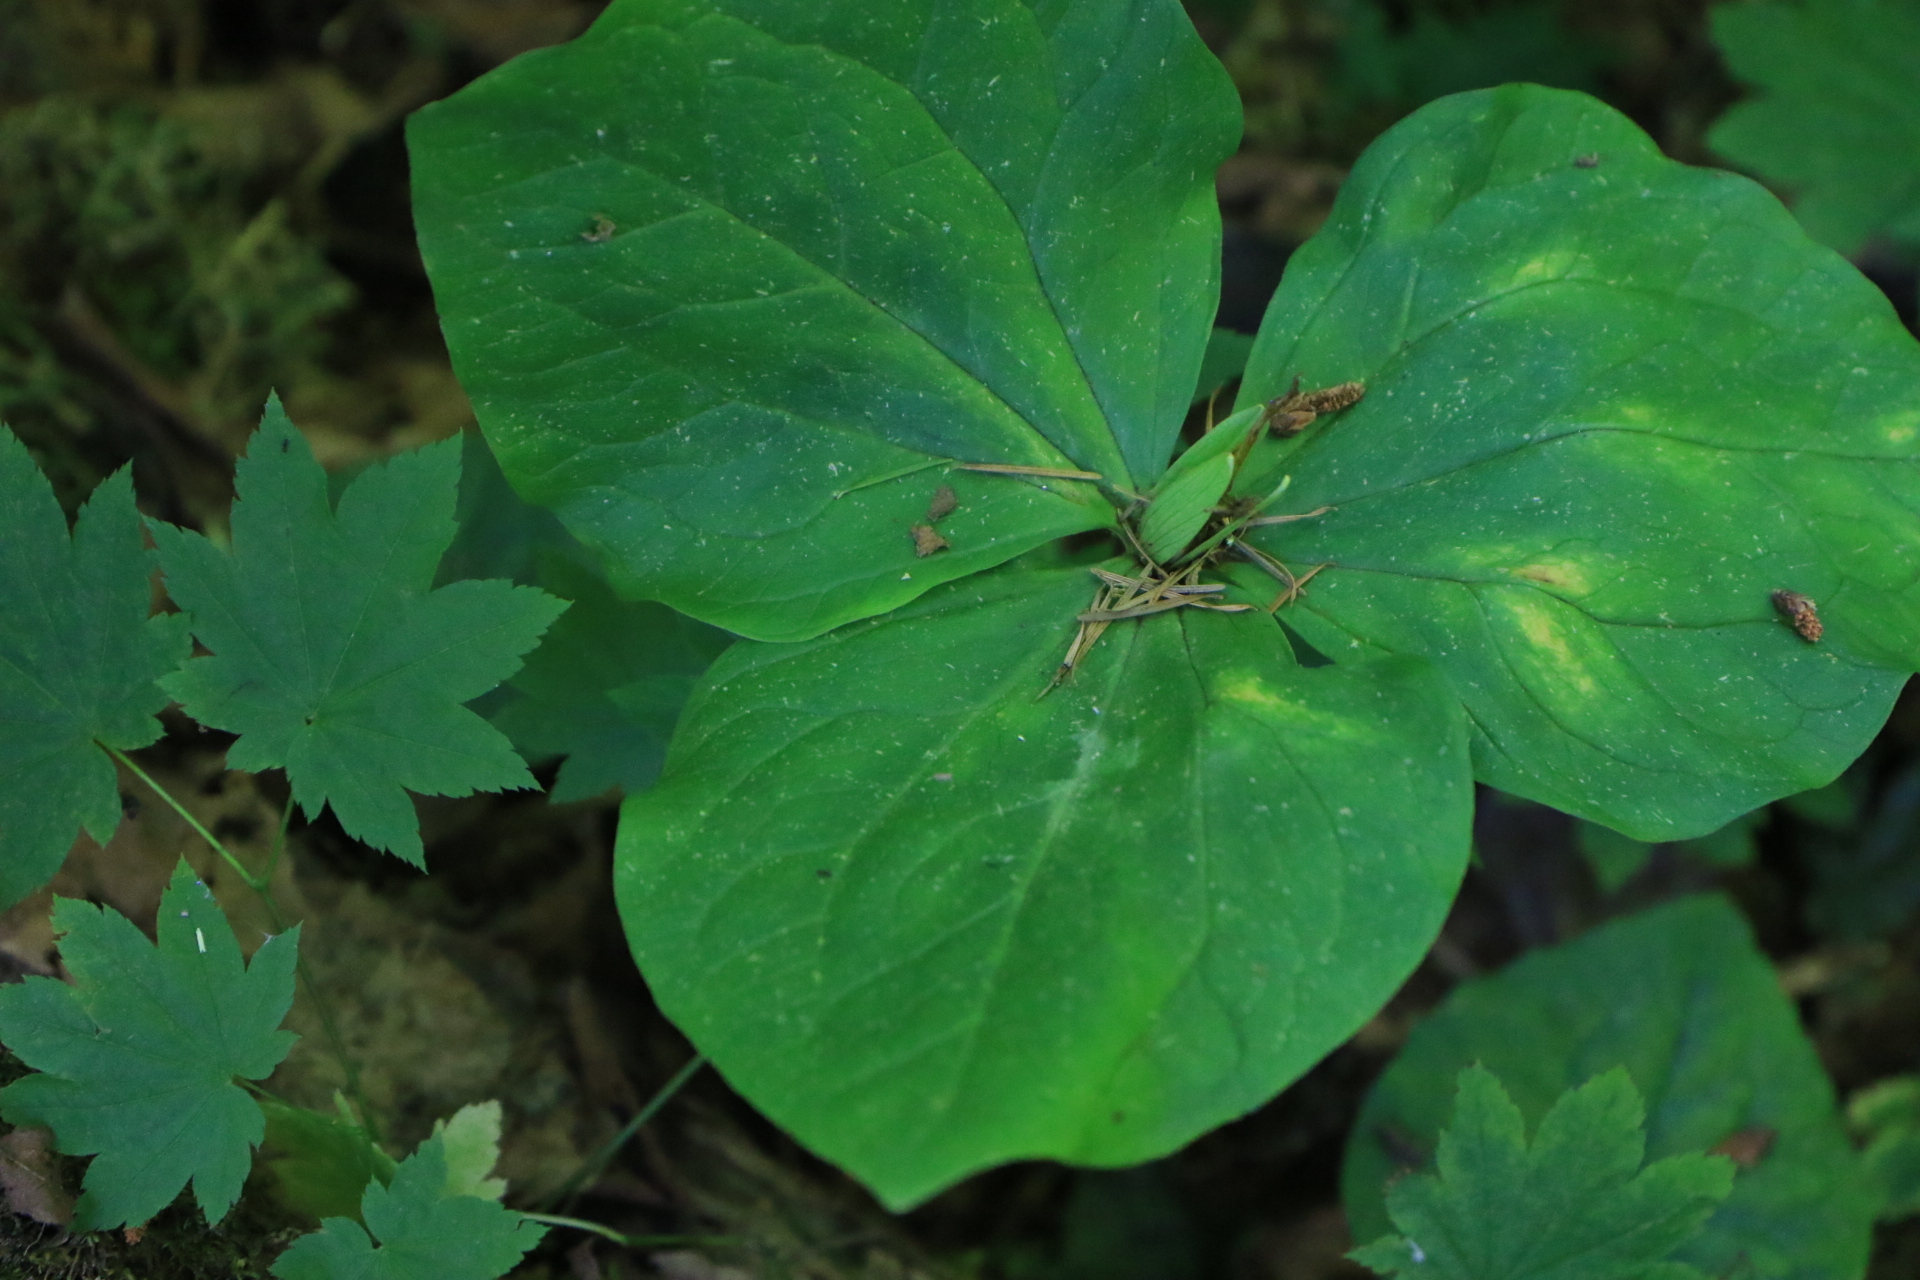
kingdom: Plantae
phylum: Tracheophyta
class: Liliopsida
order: Liliales
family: Melanthiaceae
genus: Trillium
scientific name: Trillium albidum
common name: Freeman's trillium
